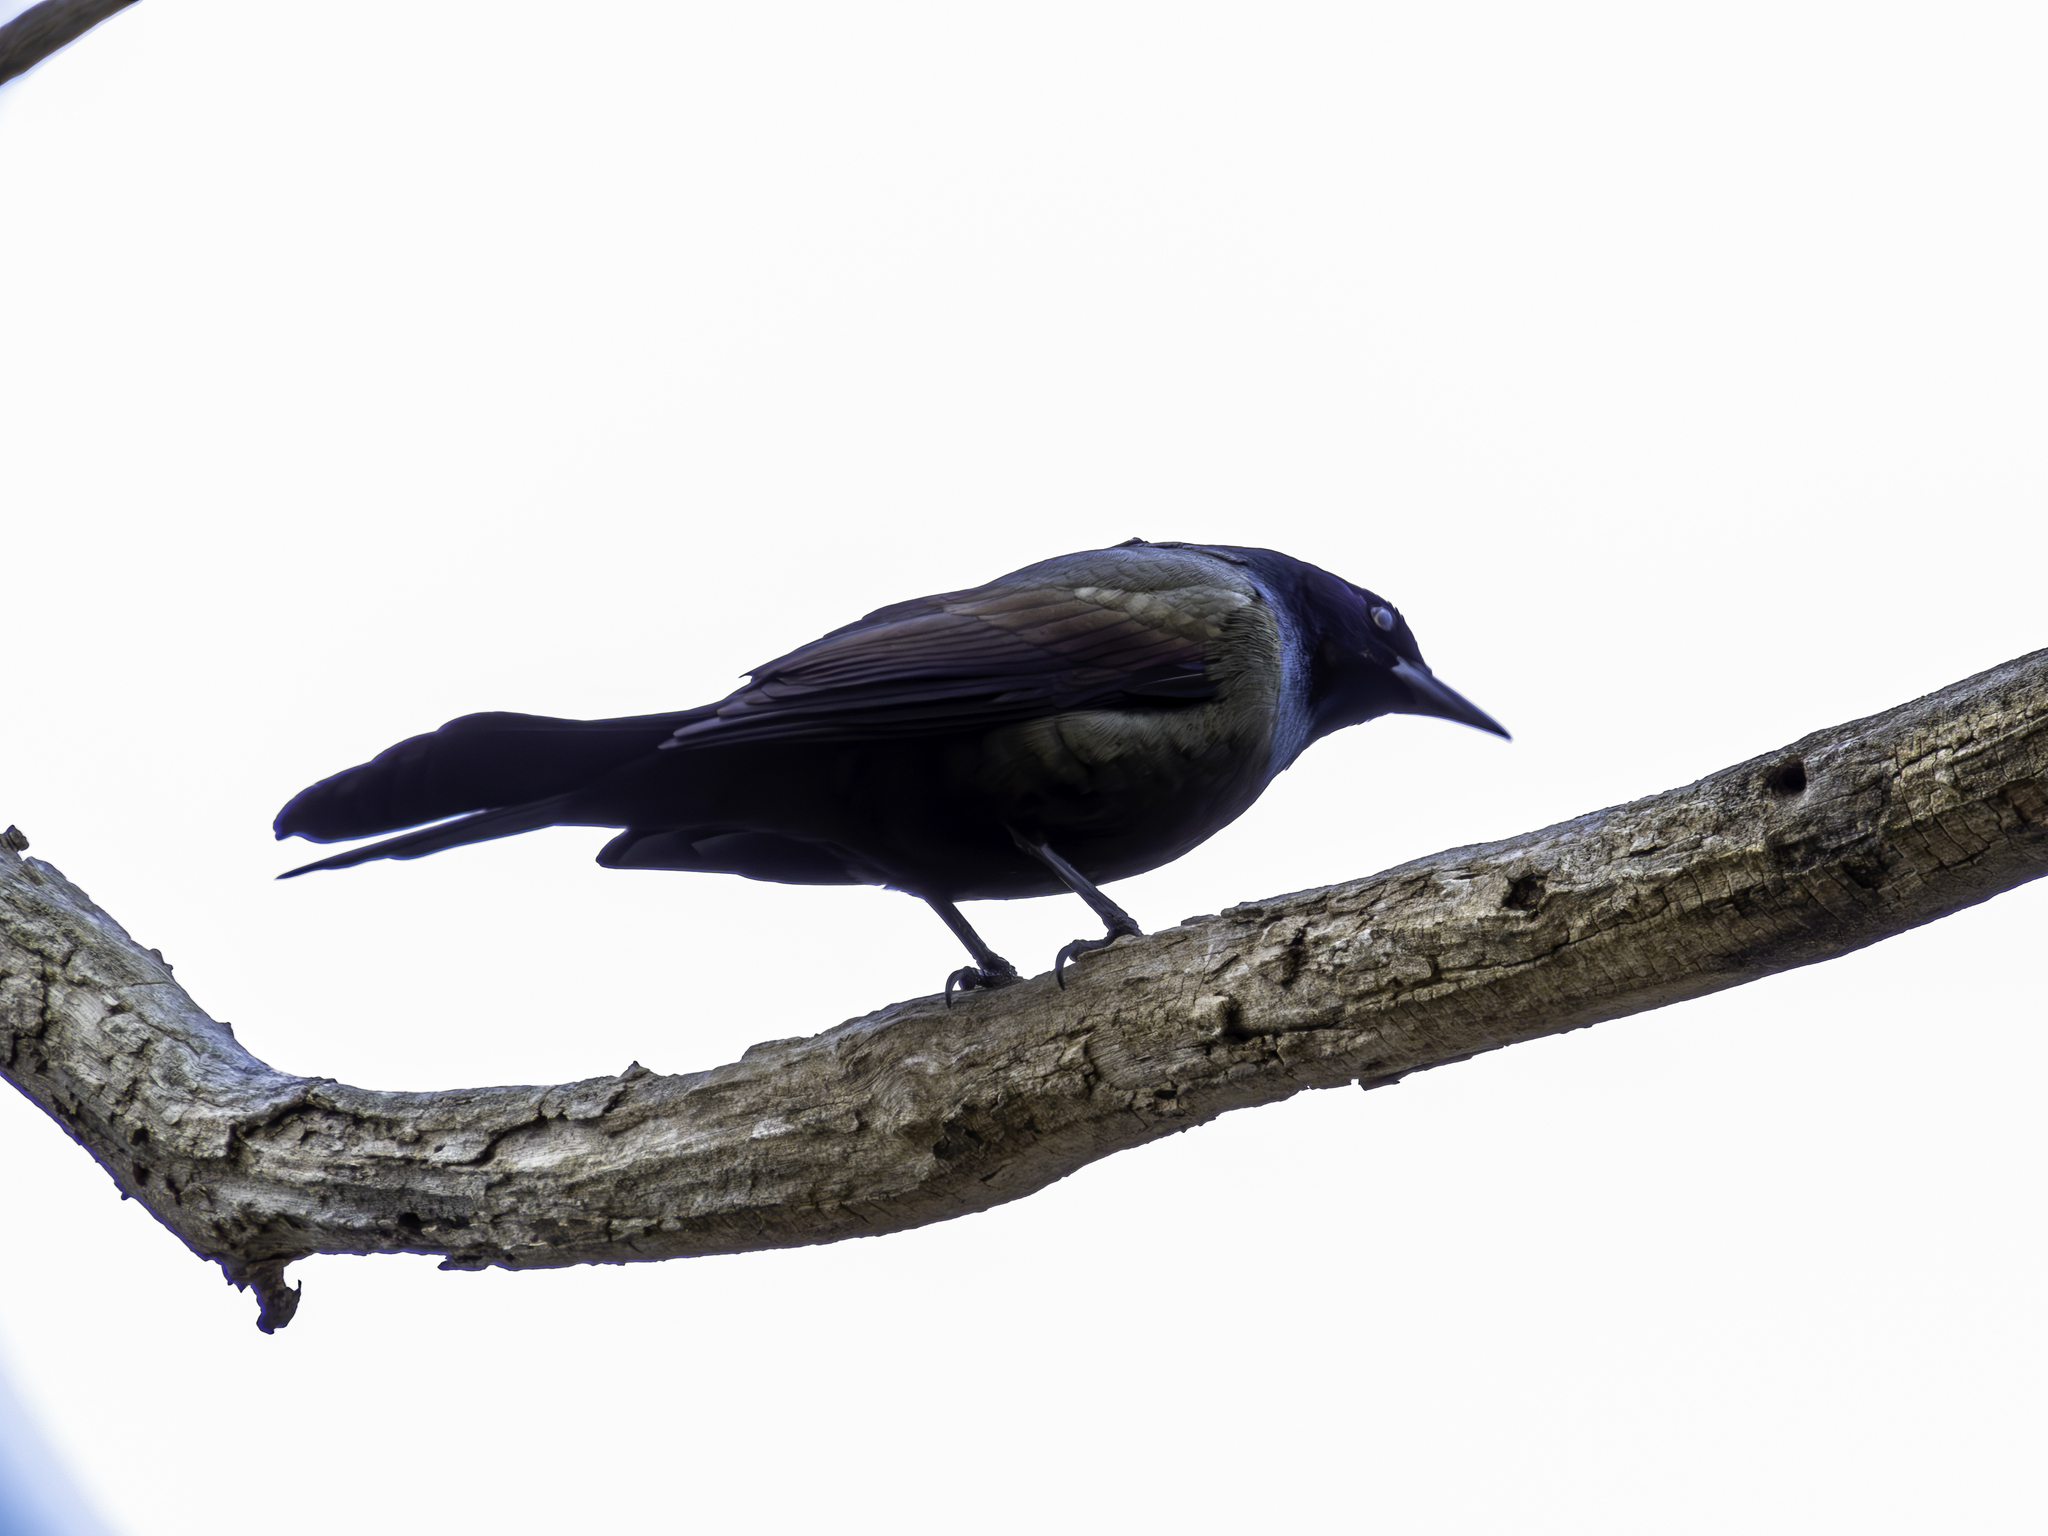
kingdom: Animalia
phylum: Chordata
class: Aves
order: Passeriformes
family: Icteridae
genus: Quiscalus
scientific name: Quiscalus quiscula
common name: Common grackle
